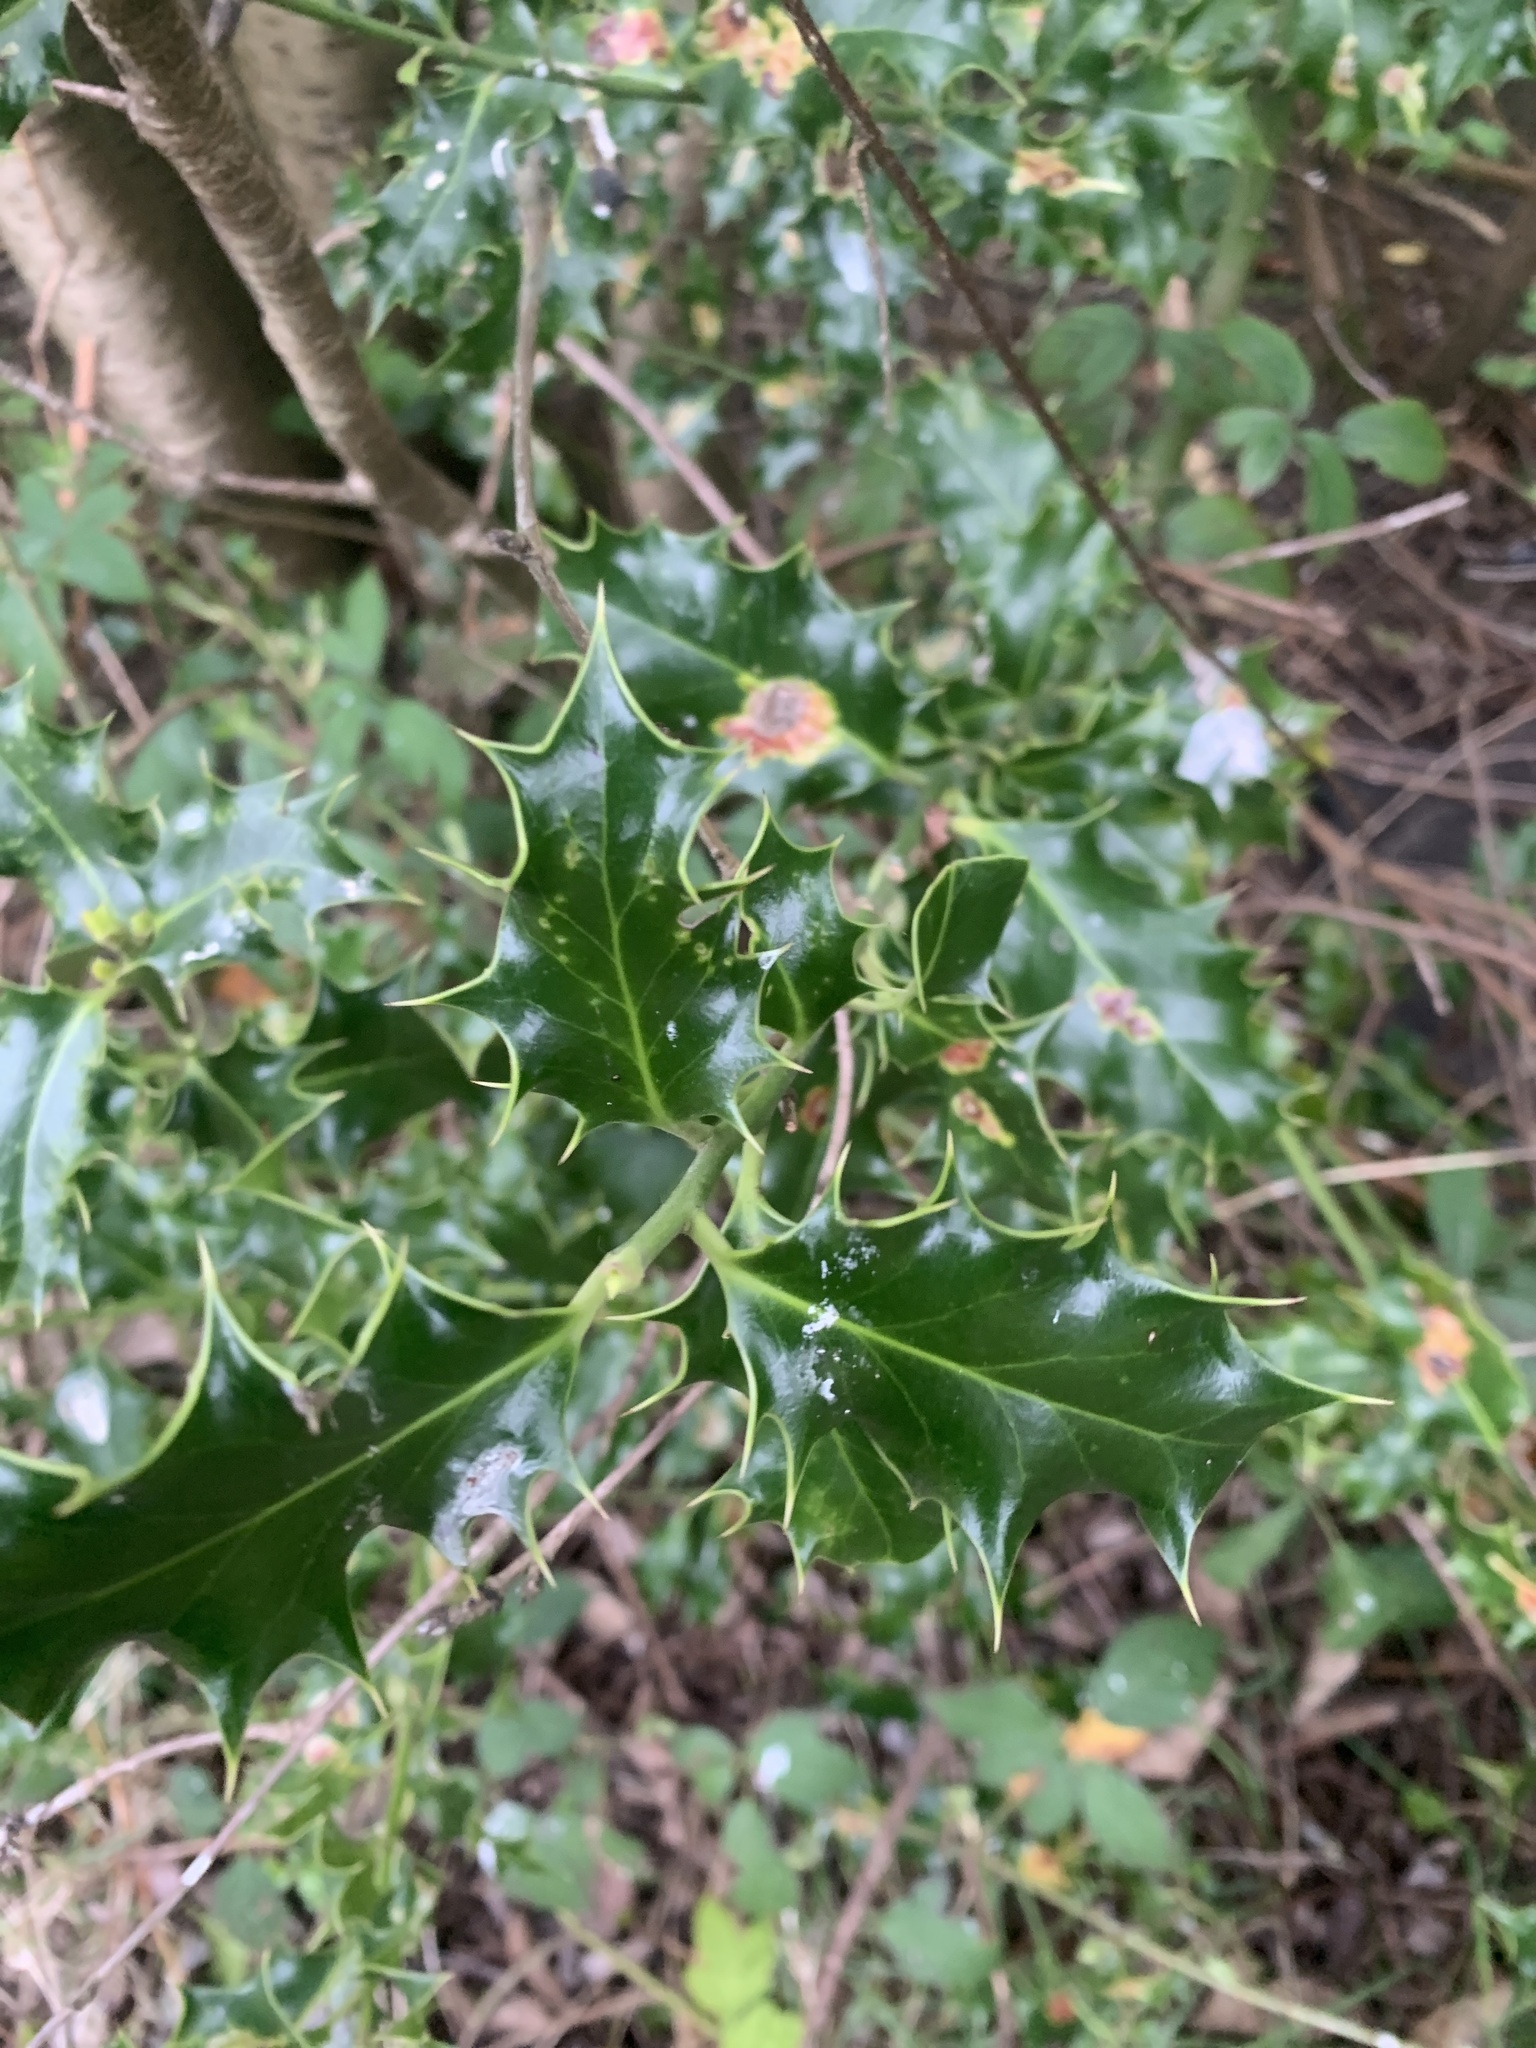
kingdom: Plantae
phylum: Tracheophyta
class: Magnoliopsida
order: Aquifoliales
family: Aquifoliaceae
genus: Ilex
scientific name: Ilex aquifolium
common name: English holly
